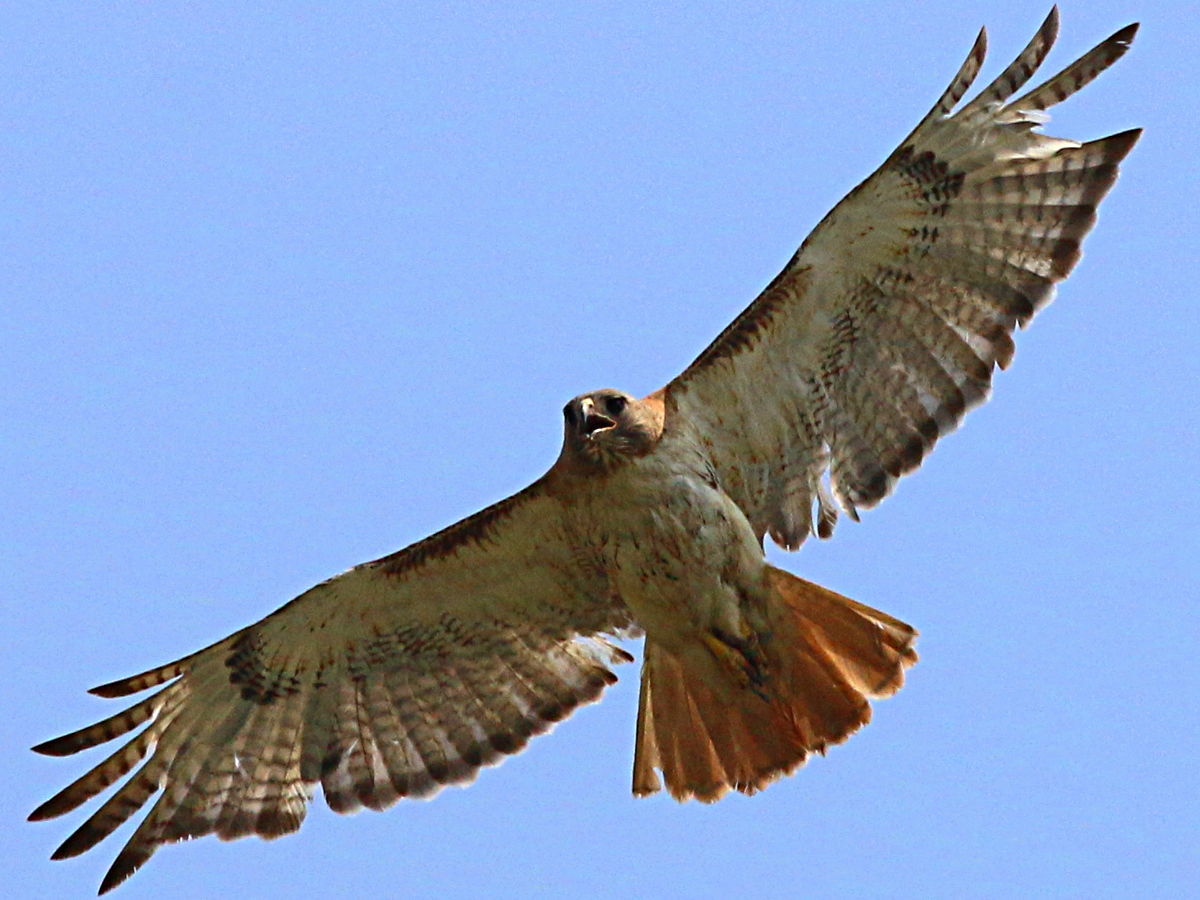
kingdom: Animalia
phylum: Chordata
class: Aves
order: Accipitriformes
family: Accipitridae
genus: Buteo
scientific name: Buteo jamaicensis
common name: Red-tailed hawk
